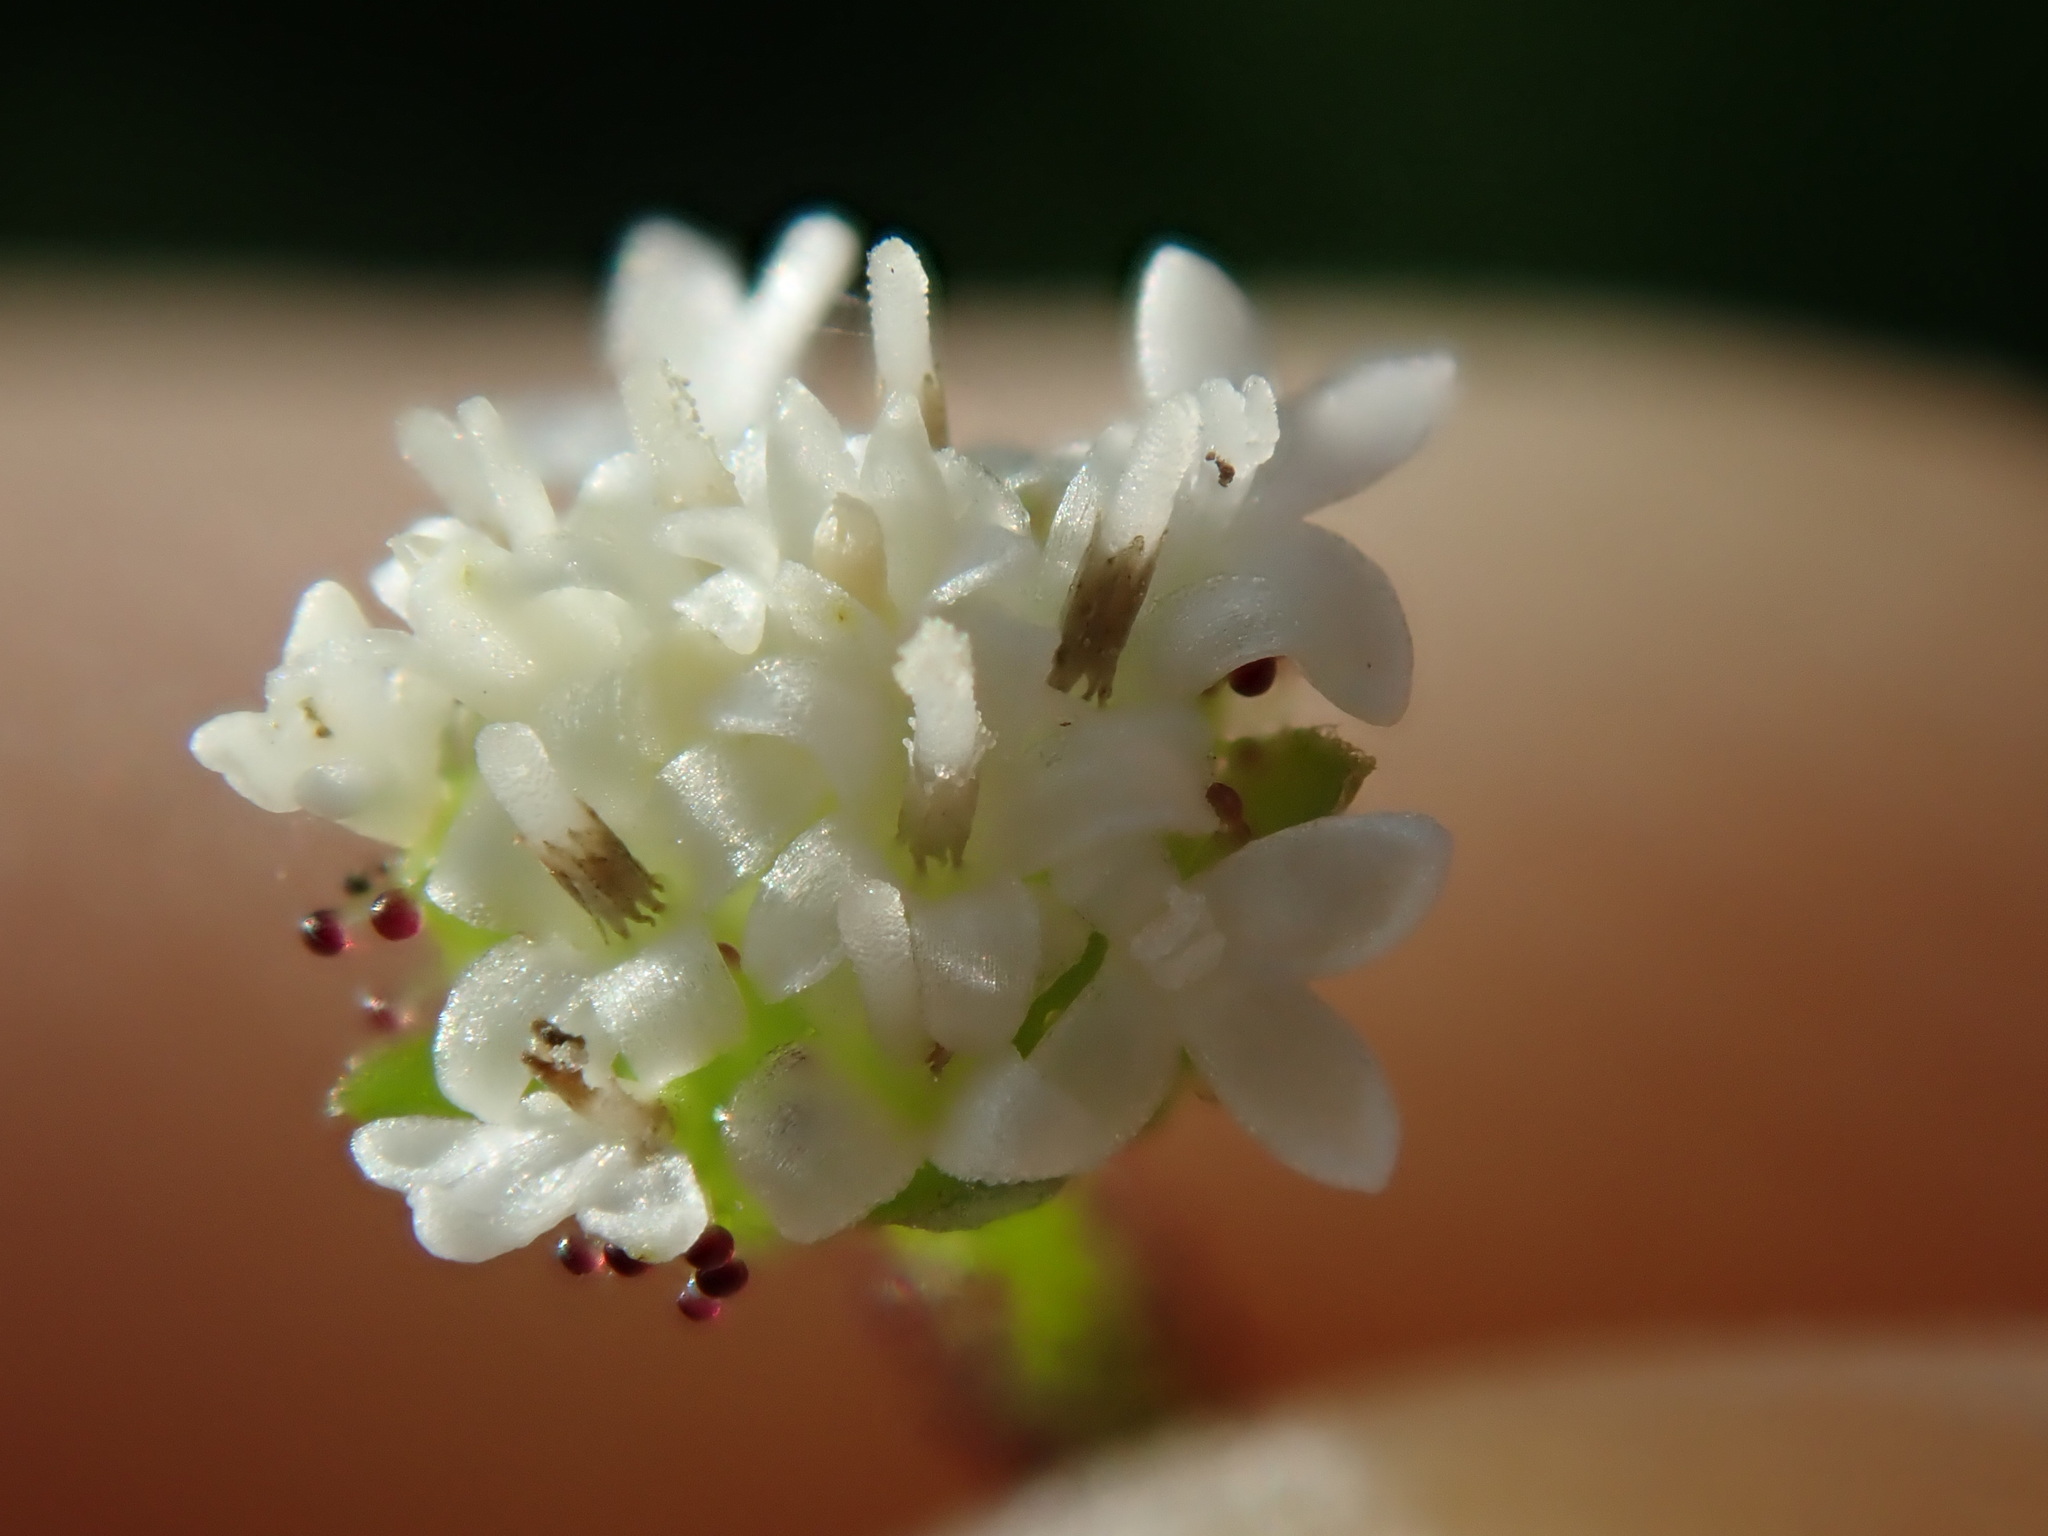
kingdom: Plantae
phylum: Tracheophyta
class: Magnoliopsida
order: Asterales
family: Asteraceae
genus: Adenocaulon
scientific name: Adenocaulon bicolor
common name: Trailplant
